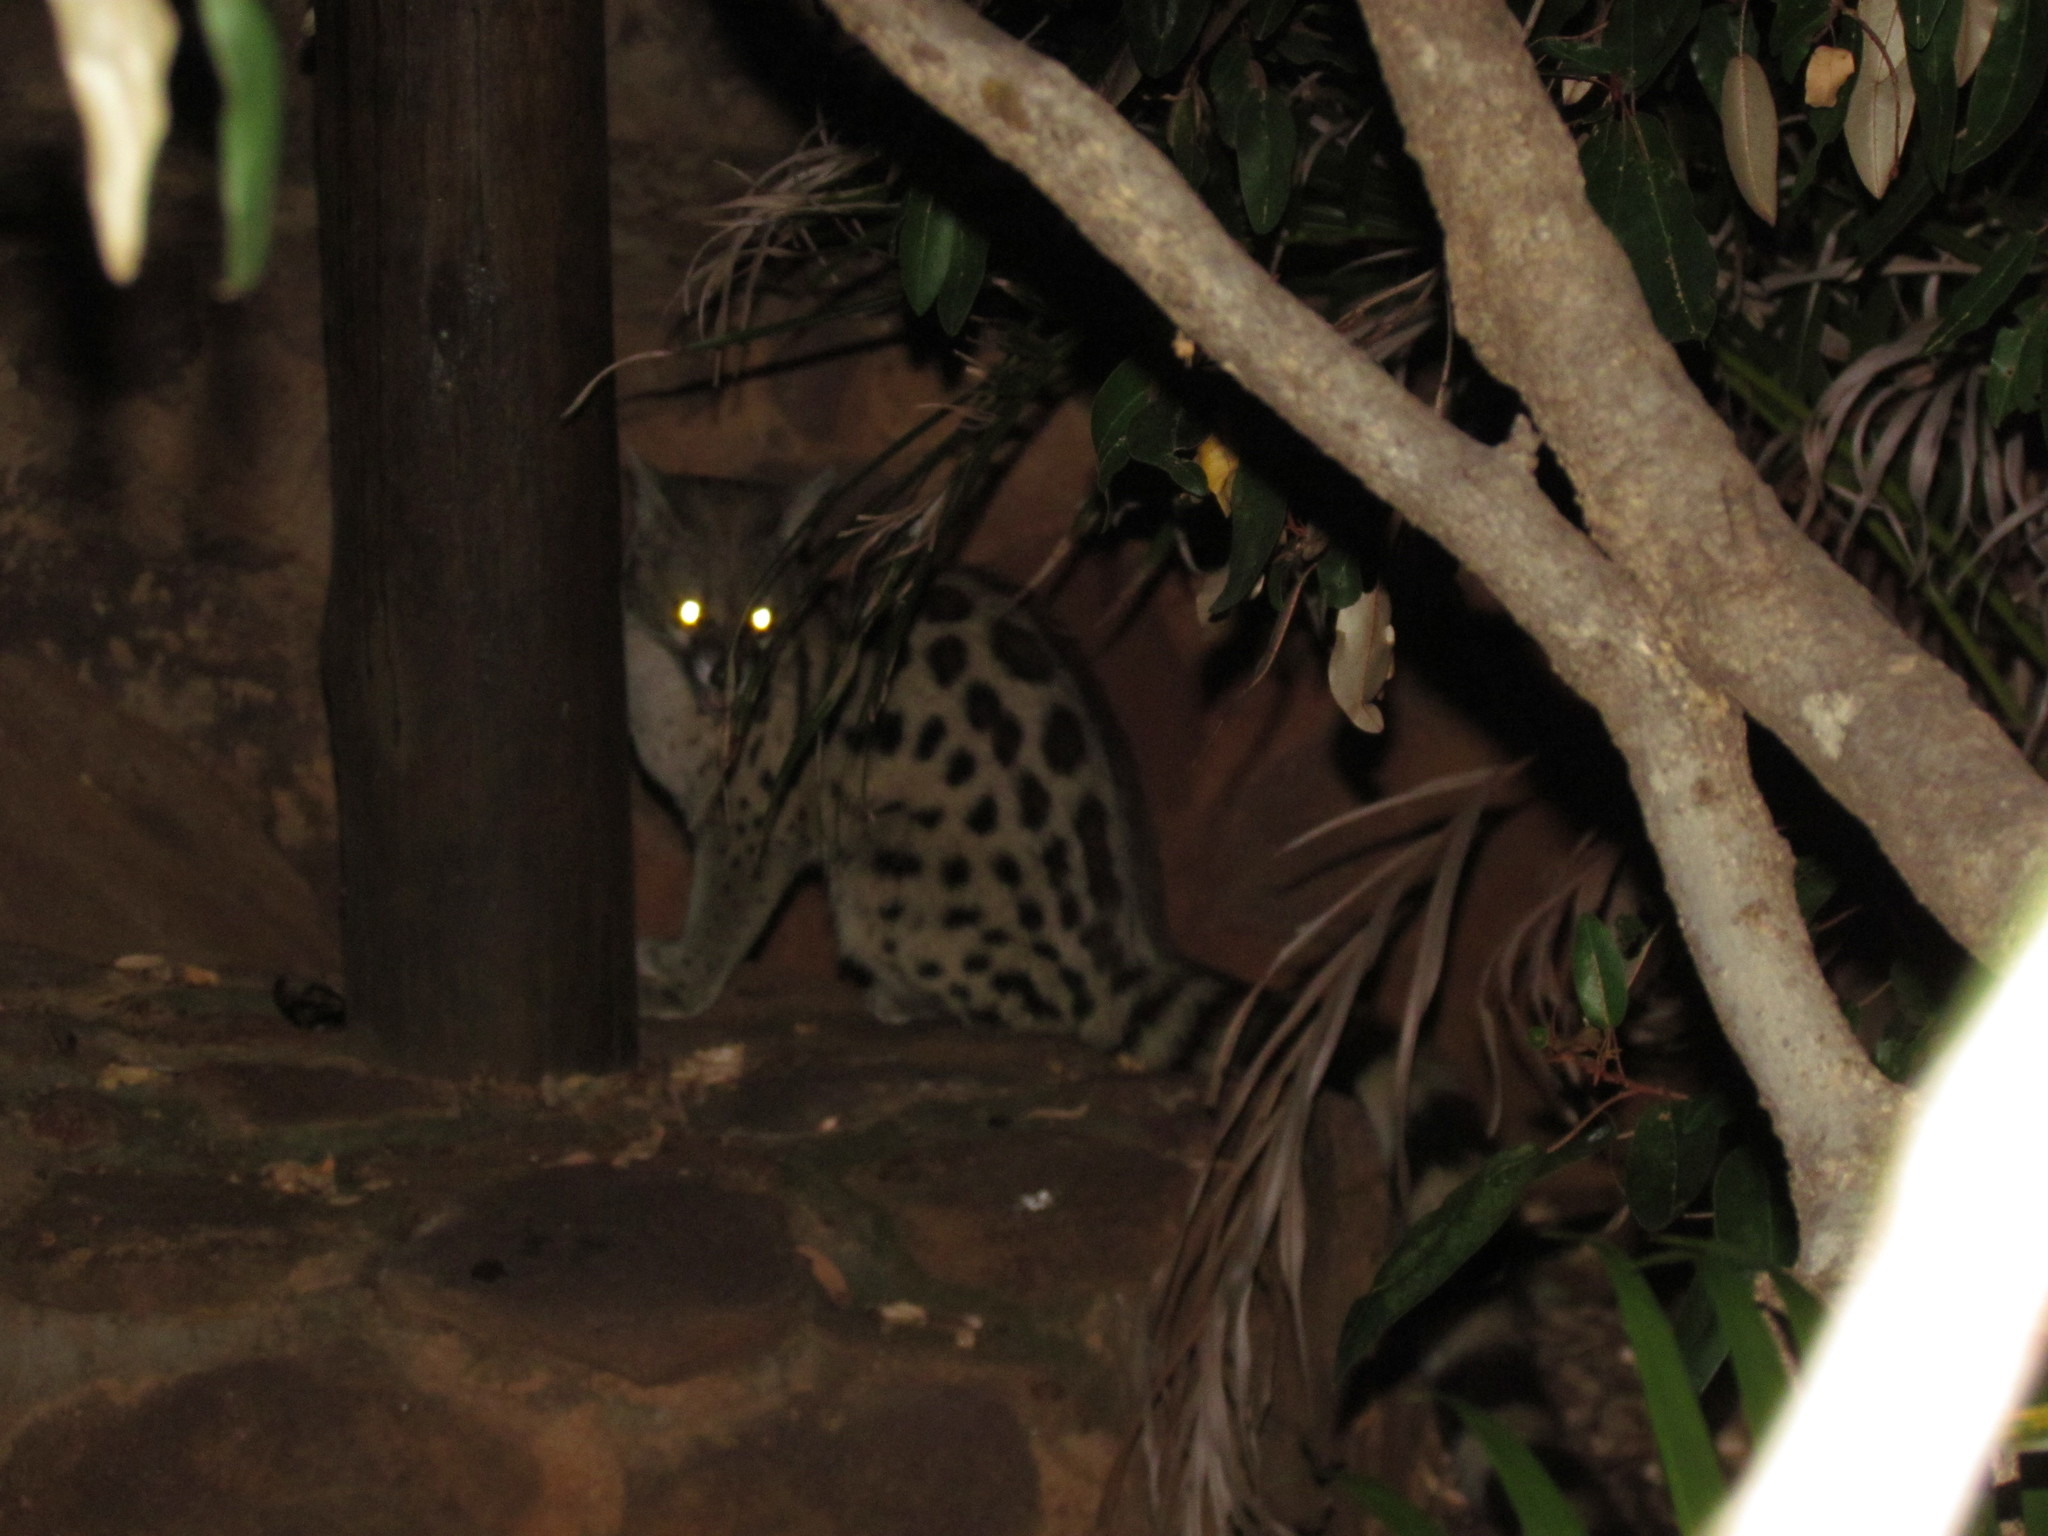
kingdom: Animalia
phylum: Chordata
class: Mammalia
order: Carnivora
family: Viverridae
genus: Genetta
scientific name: Genetta maculata
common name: Rusty-spotted genet
